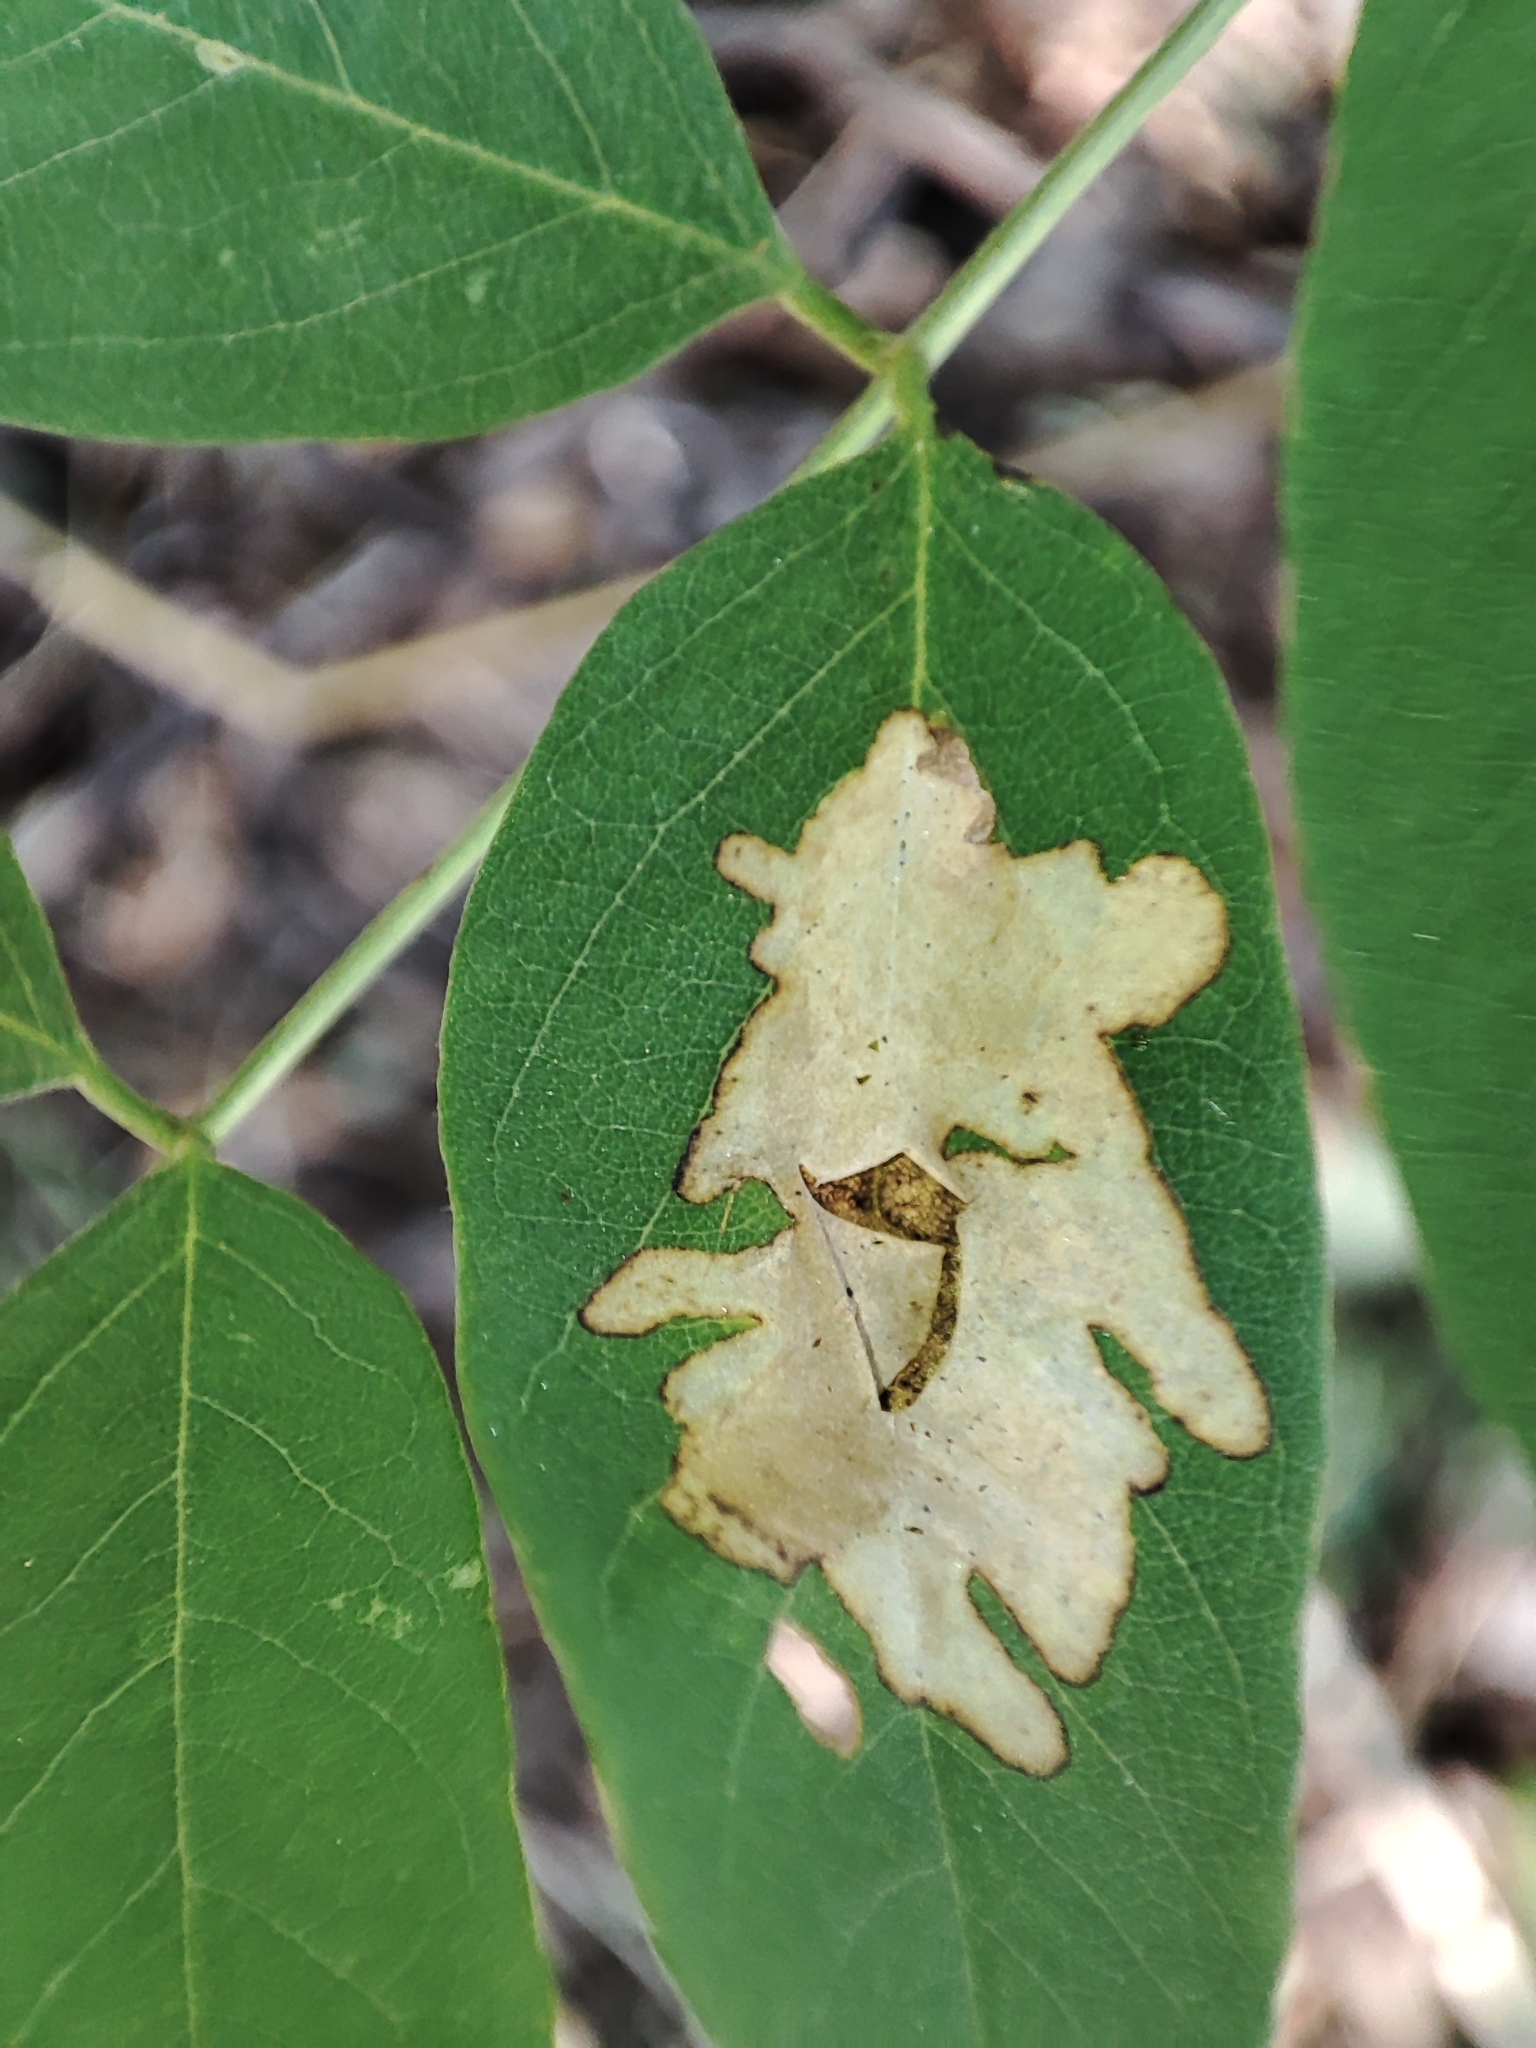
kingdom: Plantae
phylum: Tracheophyta
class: Magnoliopsida
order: Fabales
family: Fabaceae
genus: Robinia
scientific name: Robinia pseudoacacia
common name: Black locust
